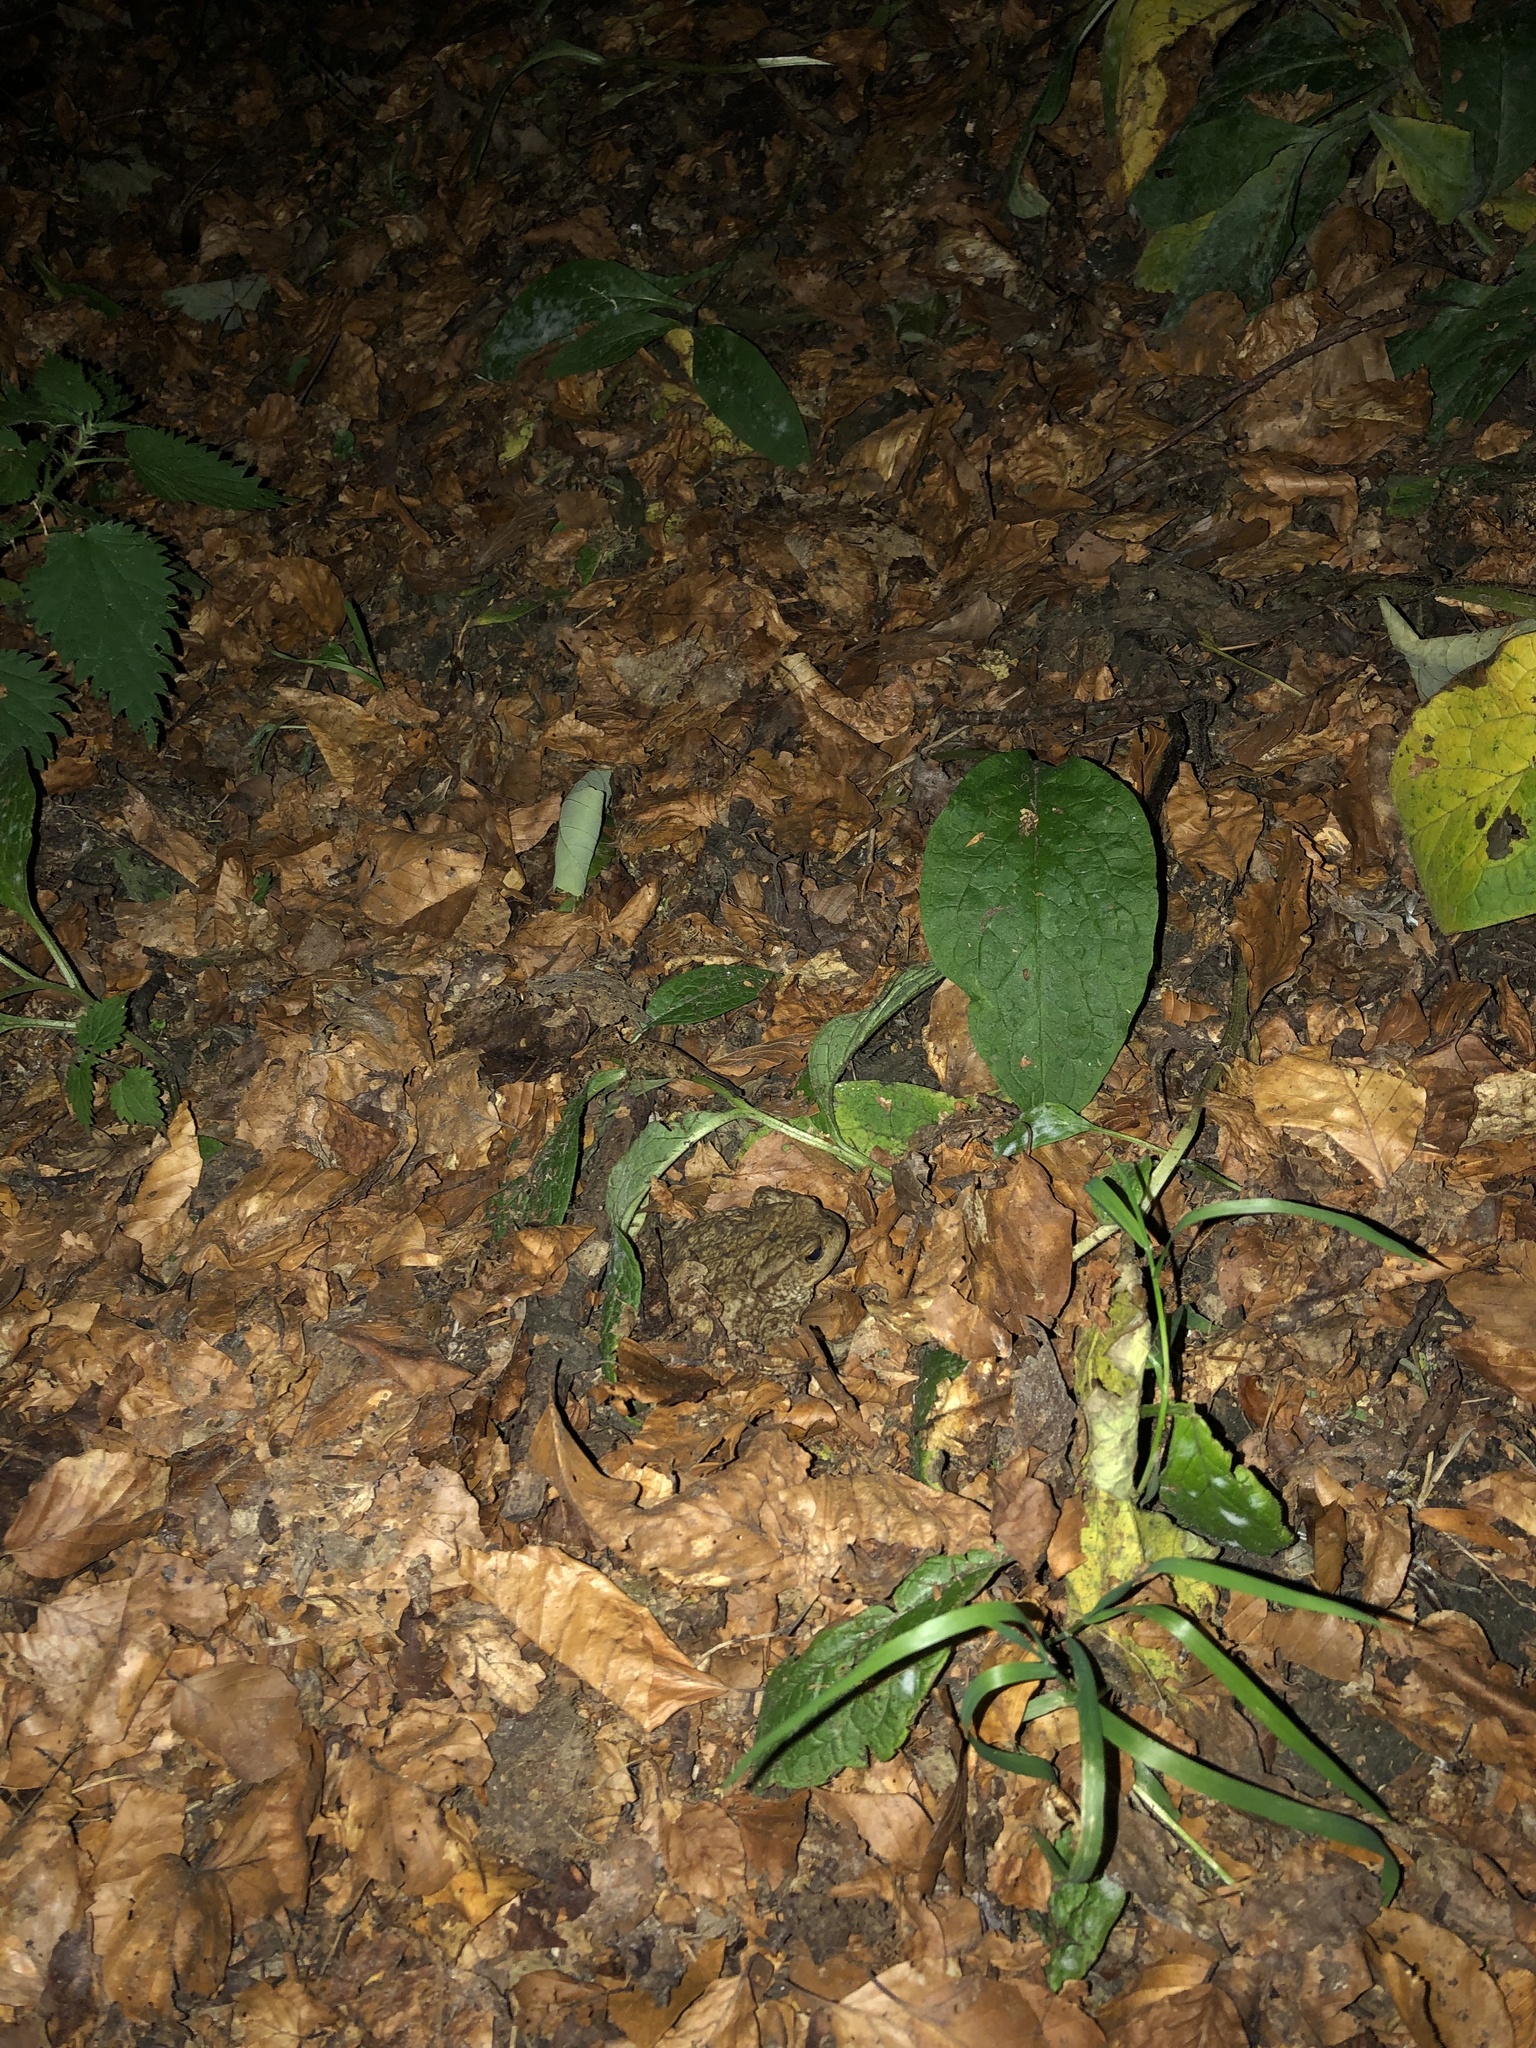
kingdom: Animalia
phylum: Chordata
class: Amphibia
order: Anura
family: Bufonidae
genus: Bufo
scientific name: Bufo bufo
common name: Common toad
